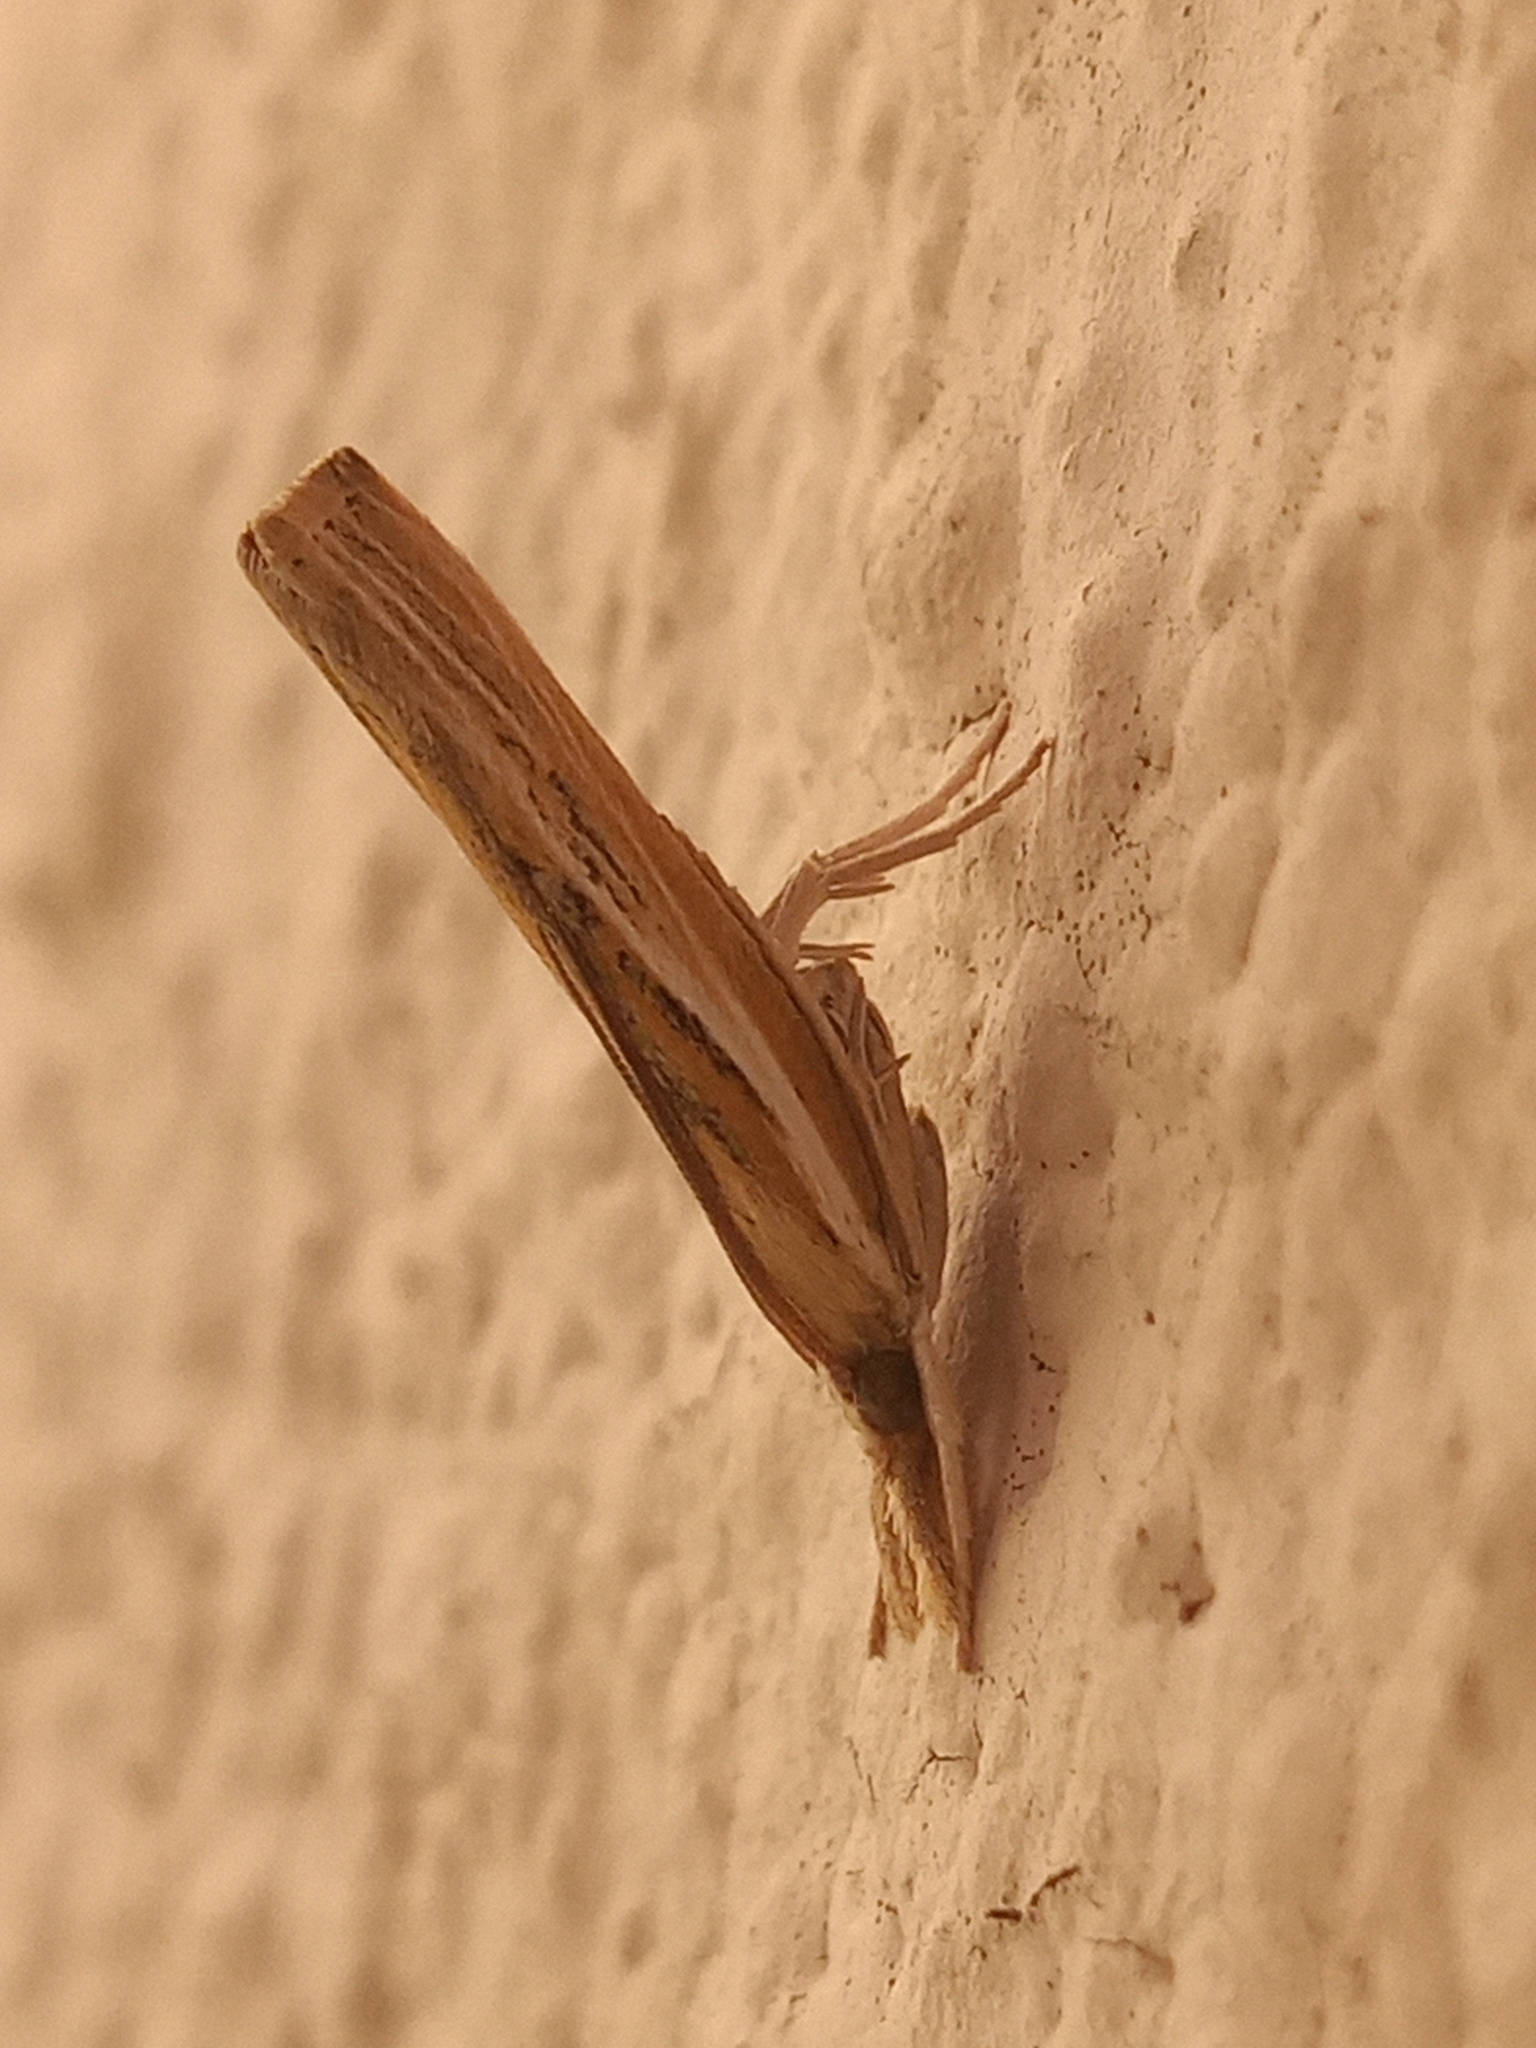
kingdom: Animalia
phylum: Arthropoda
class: Insecta
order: Lepidoptera
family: Crambidae
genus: Fissicrambus
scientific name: Fissicrambus fissiradiellus
